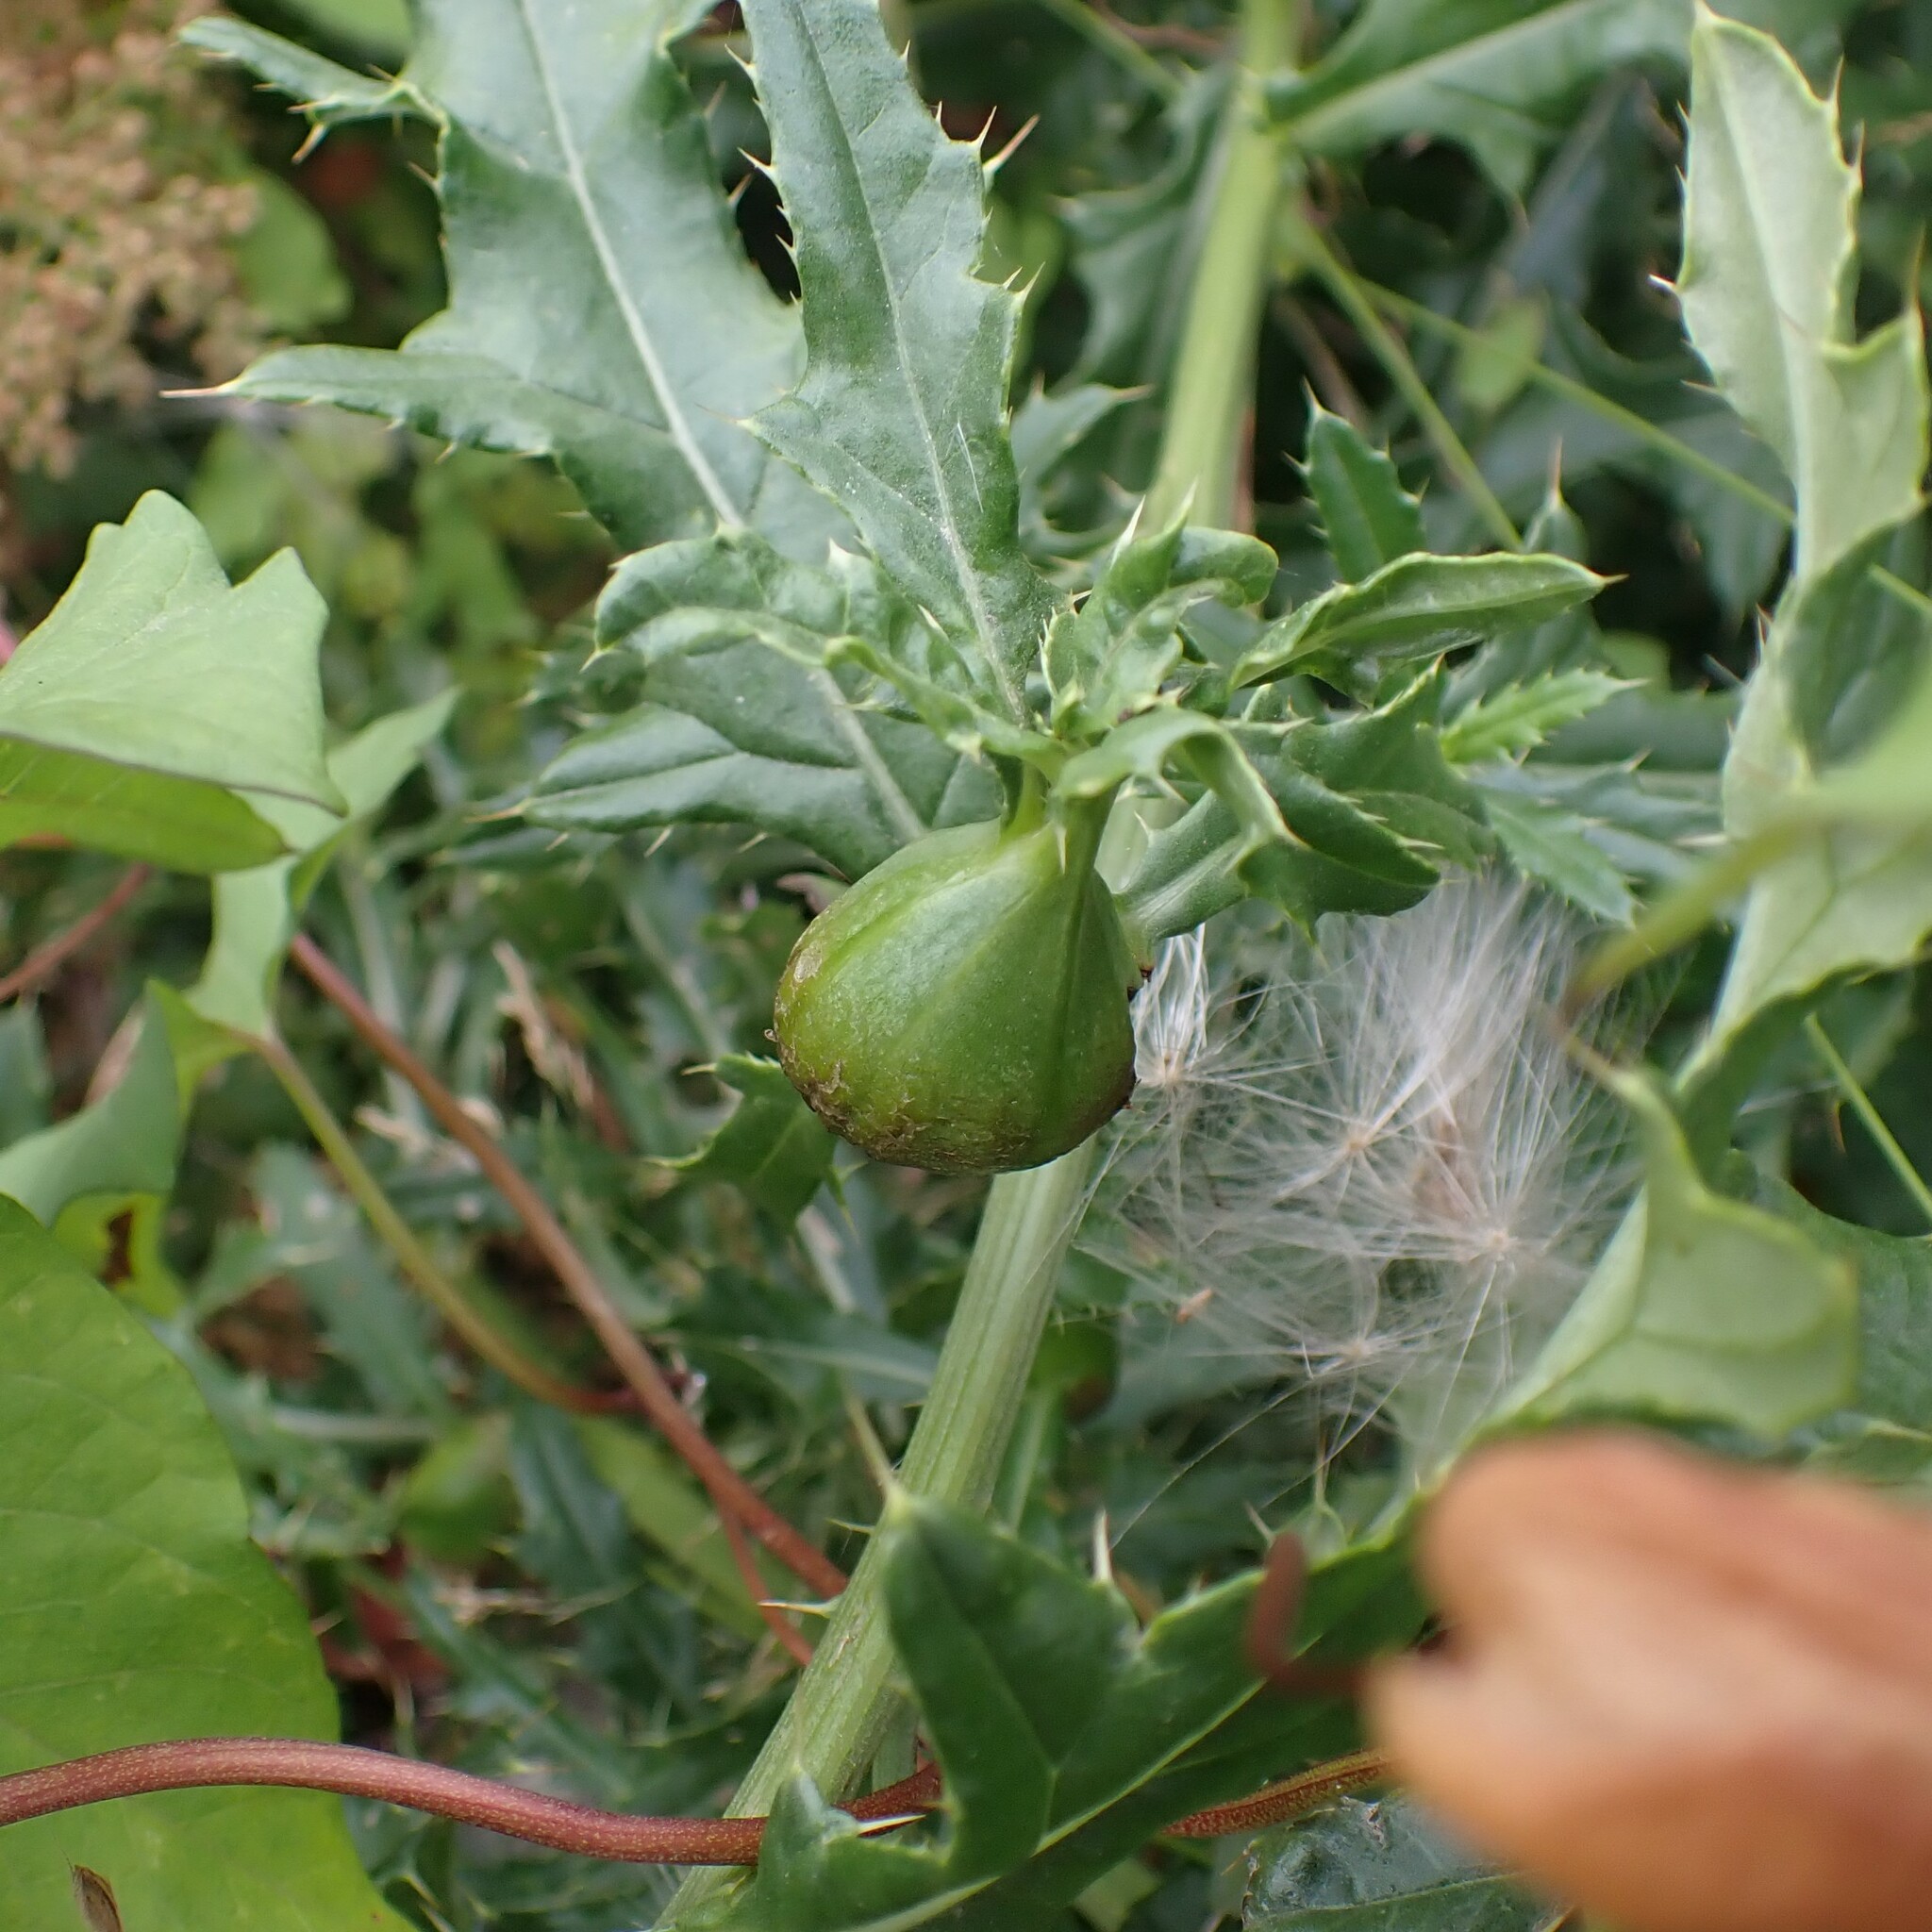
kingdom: Animalia
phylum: Arthropoda
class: Insecta
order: Diptera
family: Tephritidae
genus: Urophora
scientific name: Urophora cardui
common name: Fruit fly
